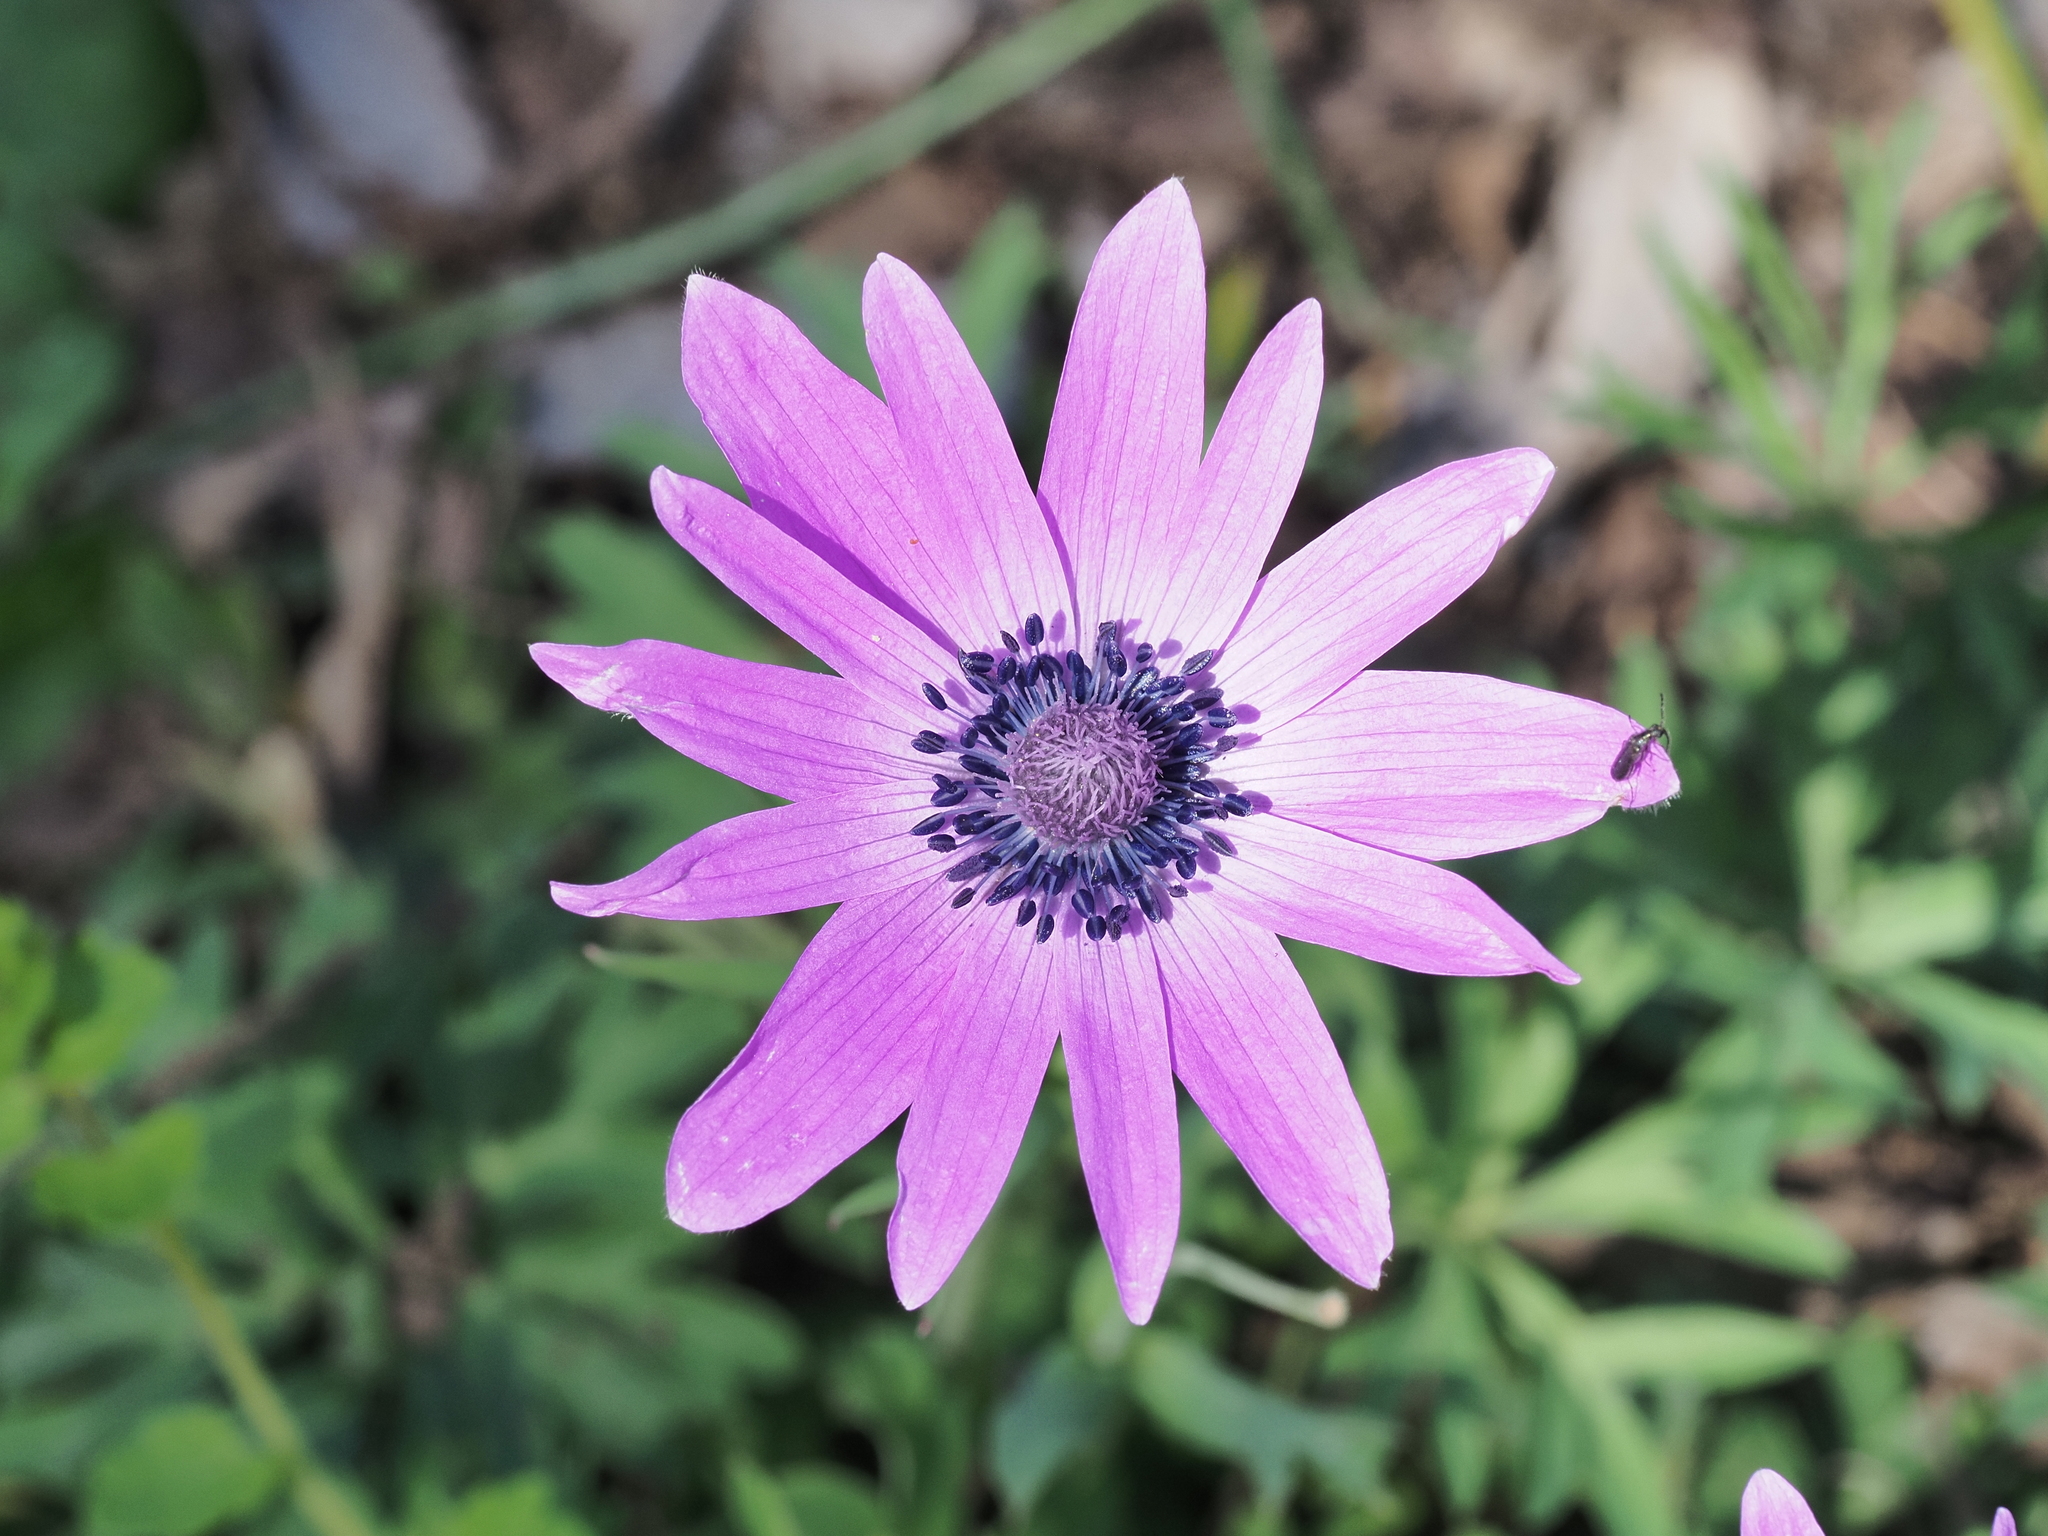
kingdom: Plantae
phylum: Tracheophyta
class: Magnoliopsida
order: Ranunculales
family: Ranunculaceae
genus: Anemone
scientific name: Anemone hortensis
